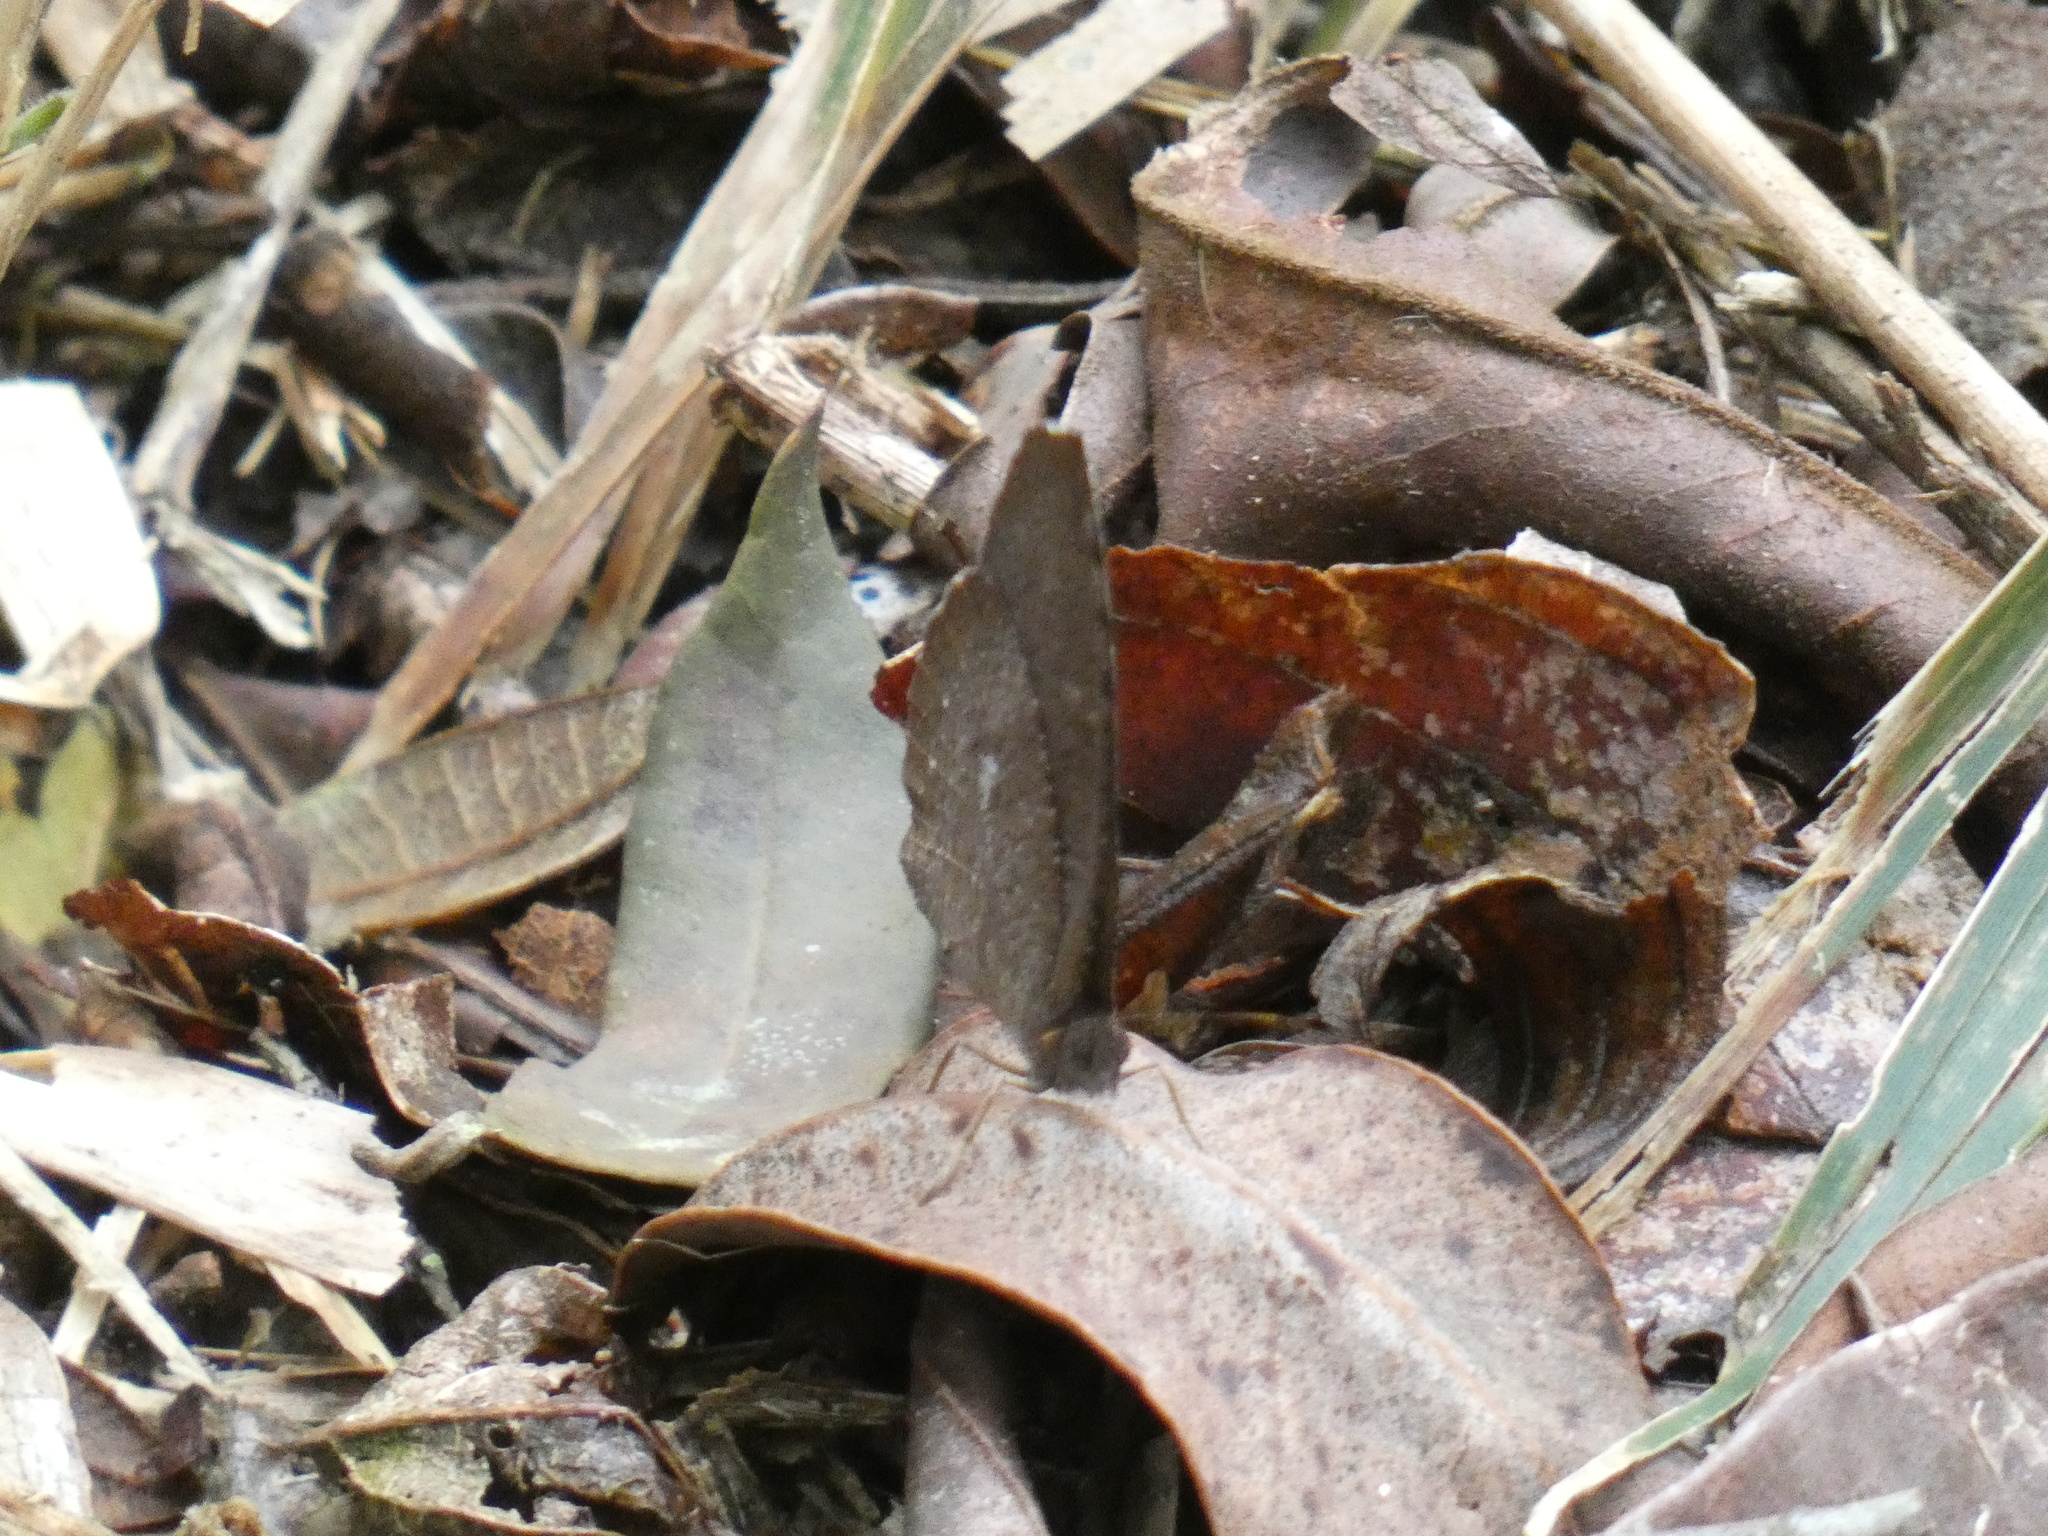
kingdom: Animalia
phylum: Arthropoda
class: Insecta
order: Lepidoptera
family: Nymphalidae
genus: Godartiana
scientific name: Godartiana muscosa
